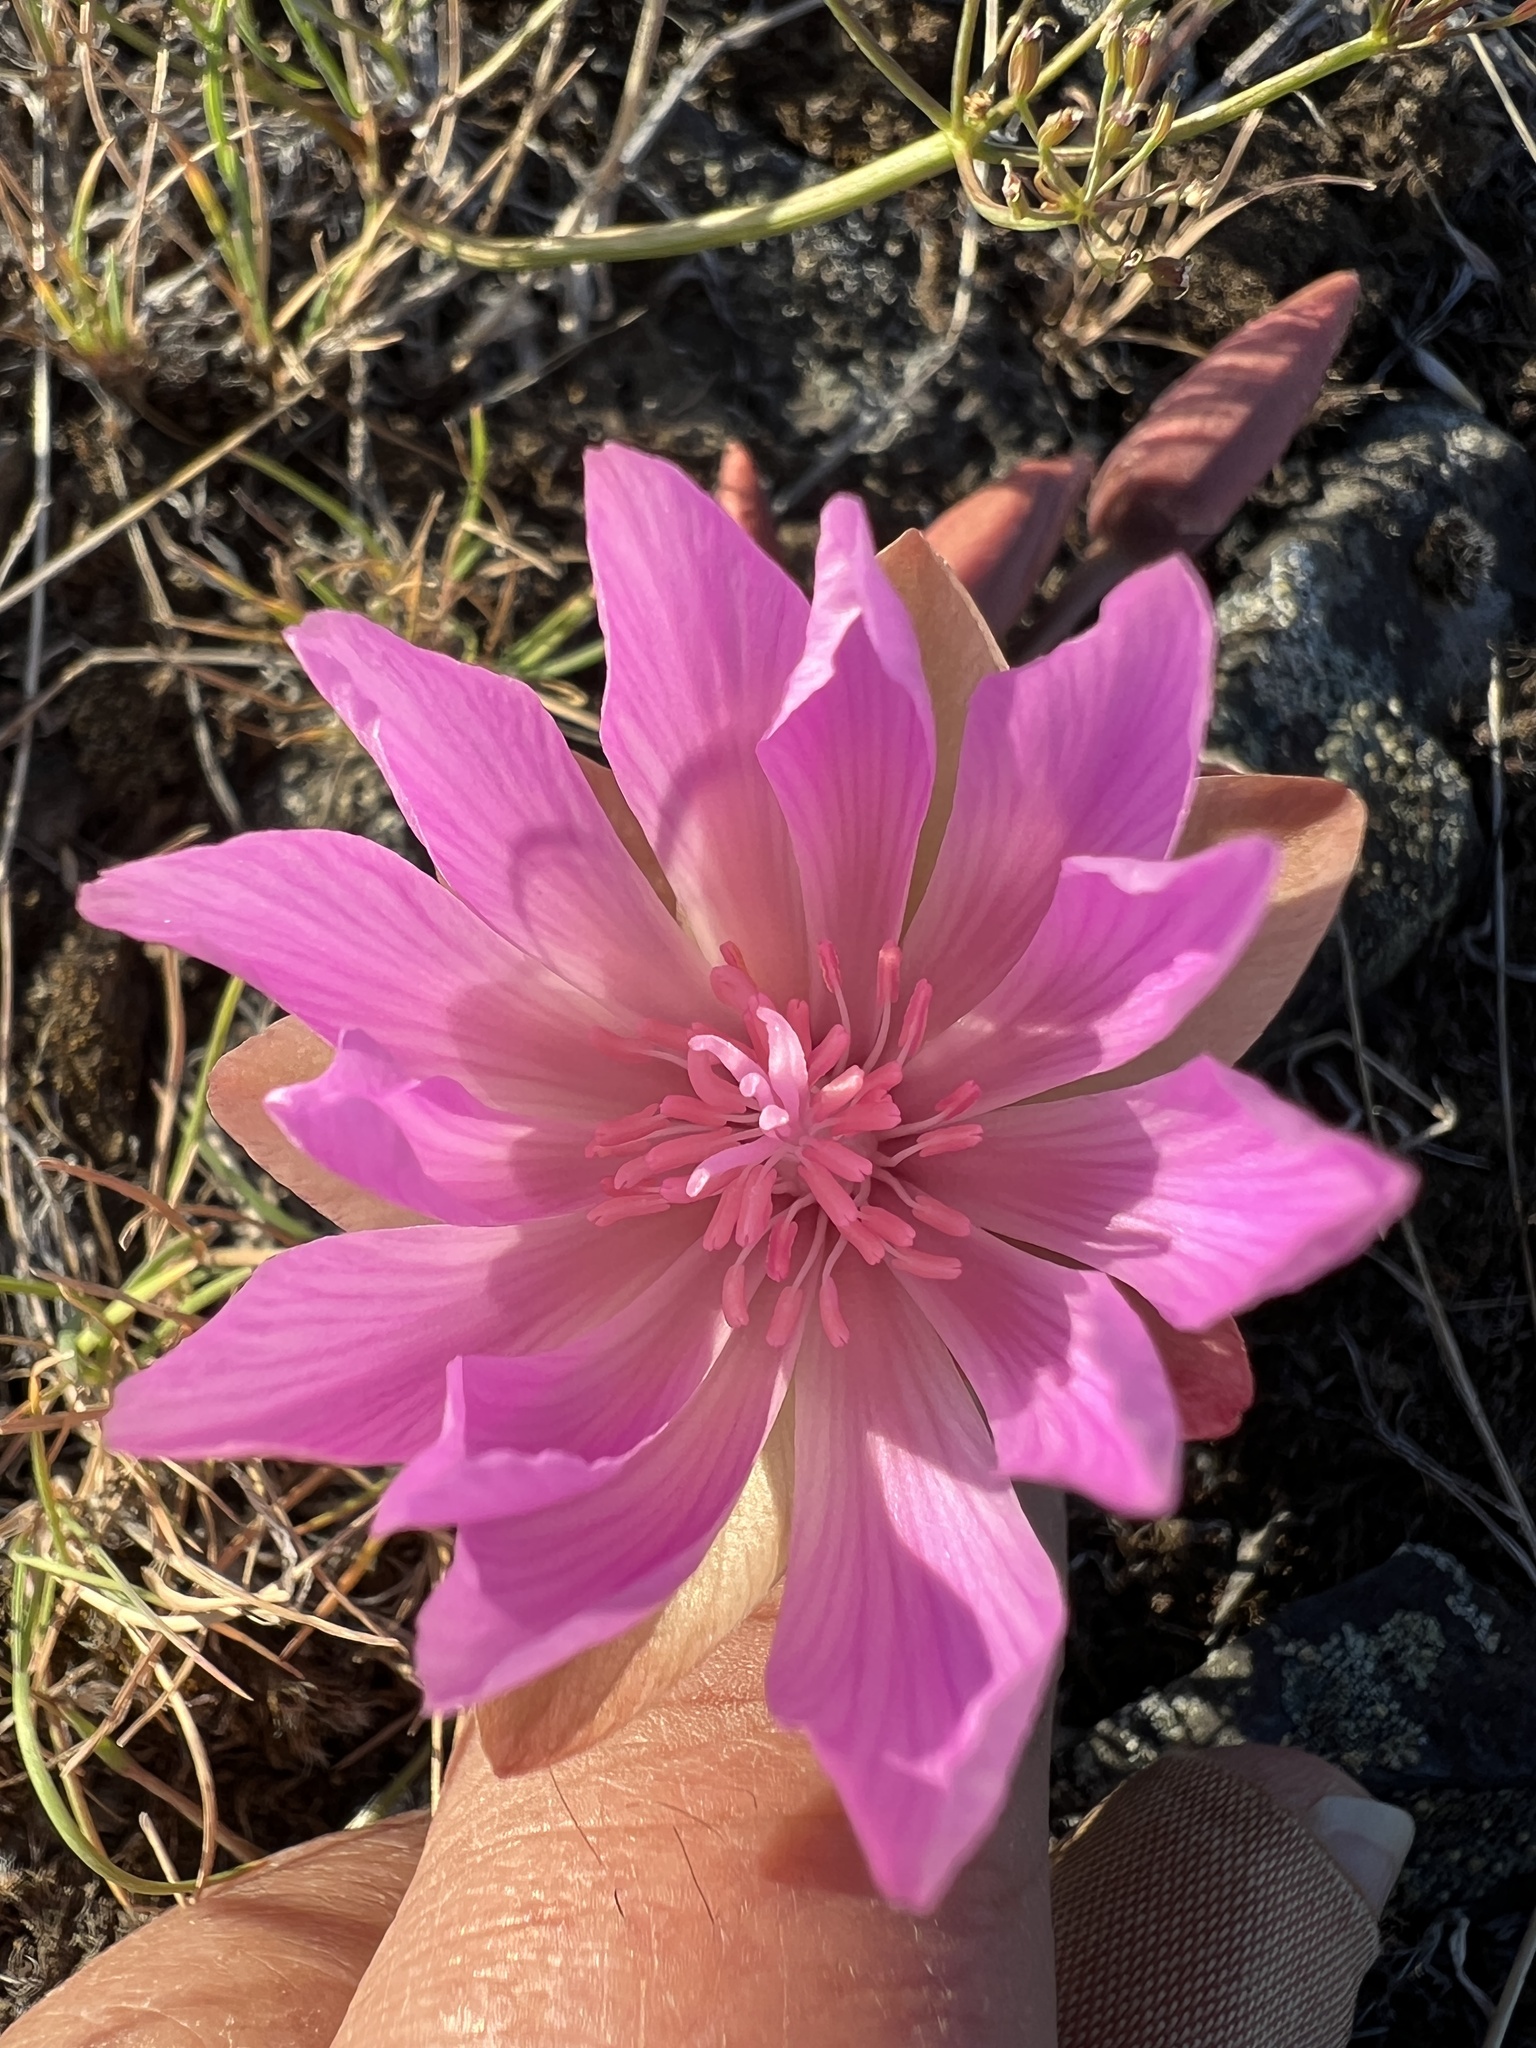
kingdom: Plantae
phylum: Tracheophyta
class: Magnoliopsida
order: Caryophyllales
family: Montiaceae
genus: Lewisia
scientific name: Lewisia rediviva
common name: Bitter-root
